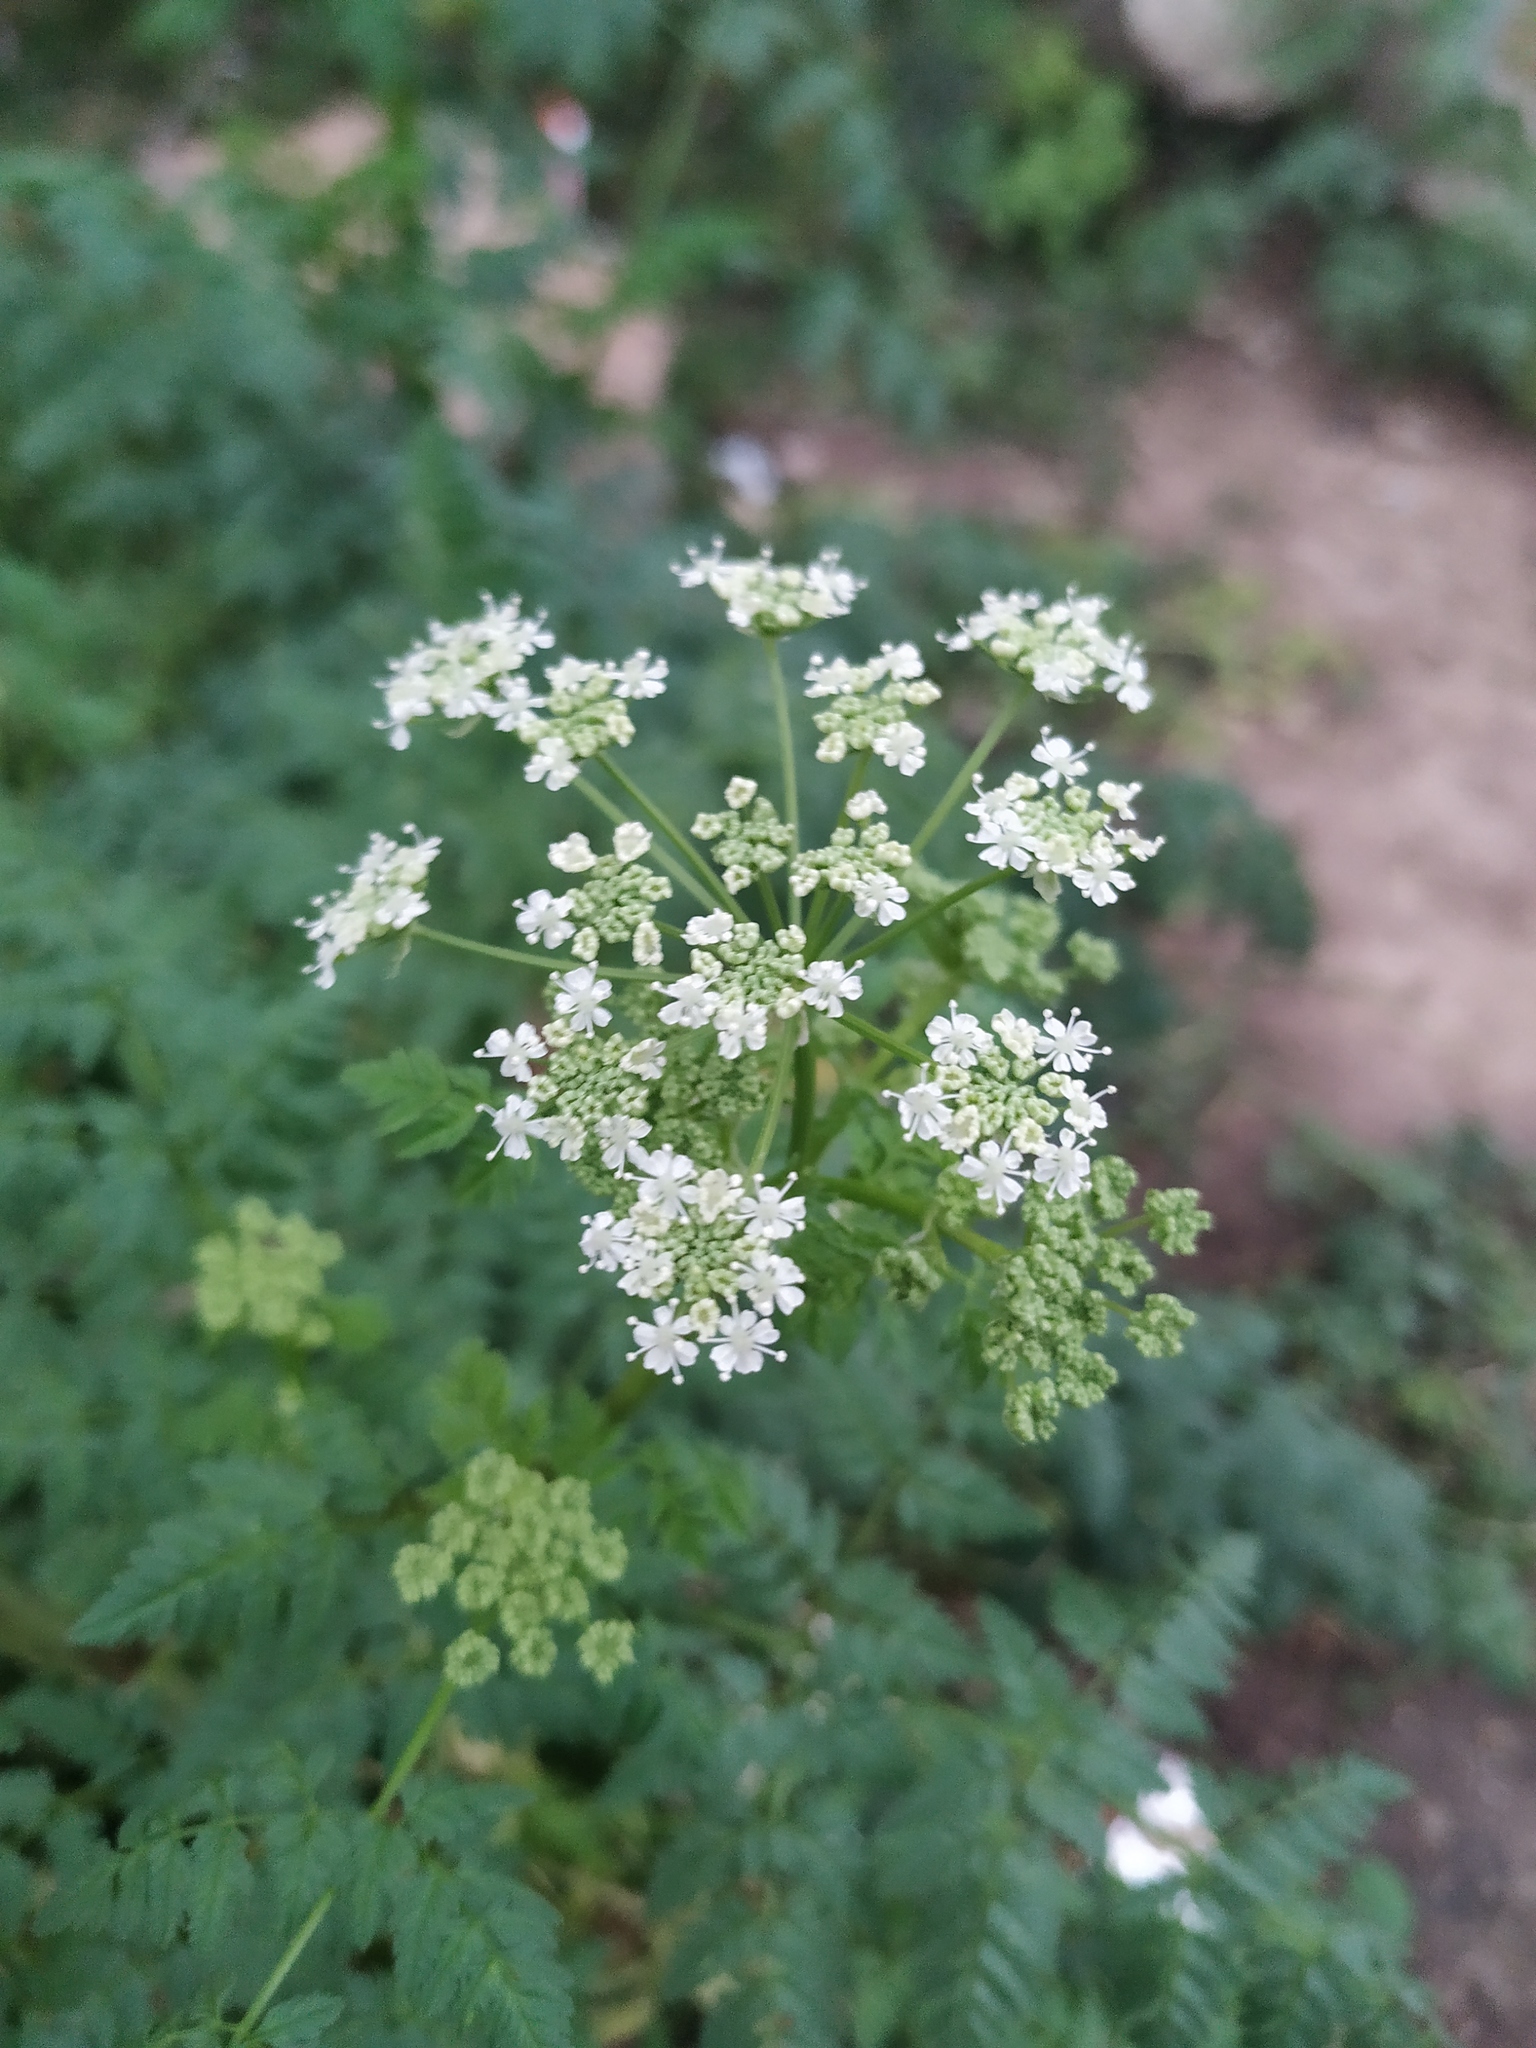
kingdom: Plantae
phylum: Tracheophyta
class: Magnoliopsida
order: Apiales
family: Apiaceae
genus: Conium
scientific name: Conium maculatum
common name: Hemlock
